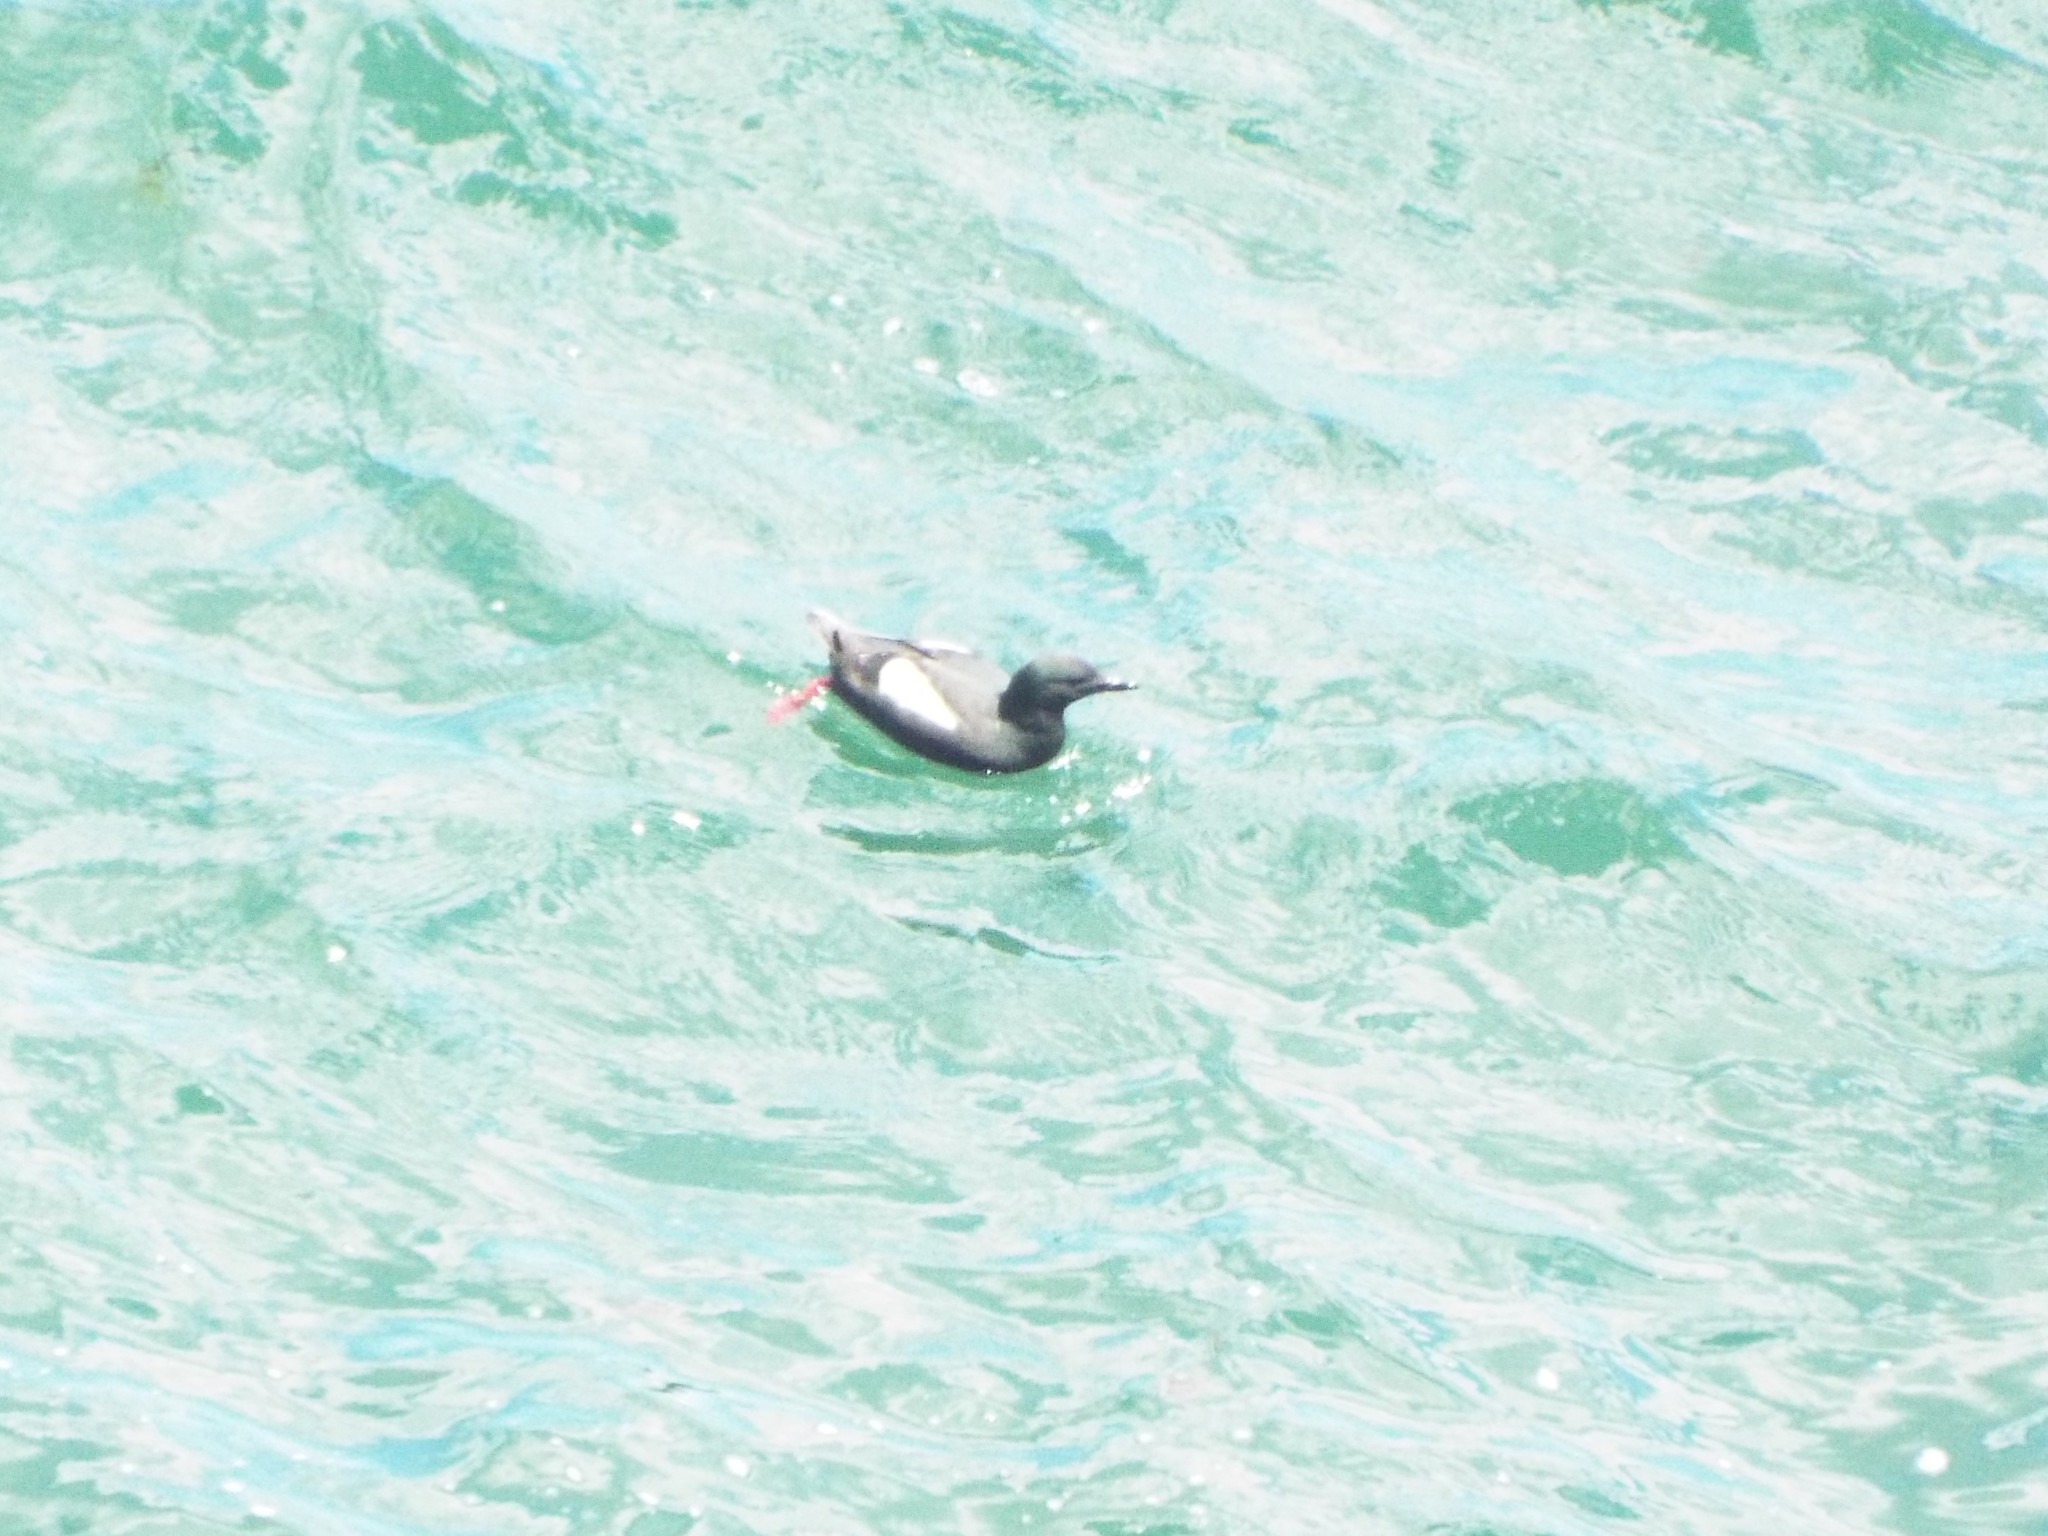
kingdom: Animalia
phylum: Chordata
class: Aves
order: Charadriiformes
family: Alcidae
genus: Cepphus
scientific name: Cepphus grylle
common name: Black guillemot
